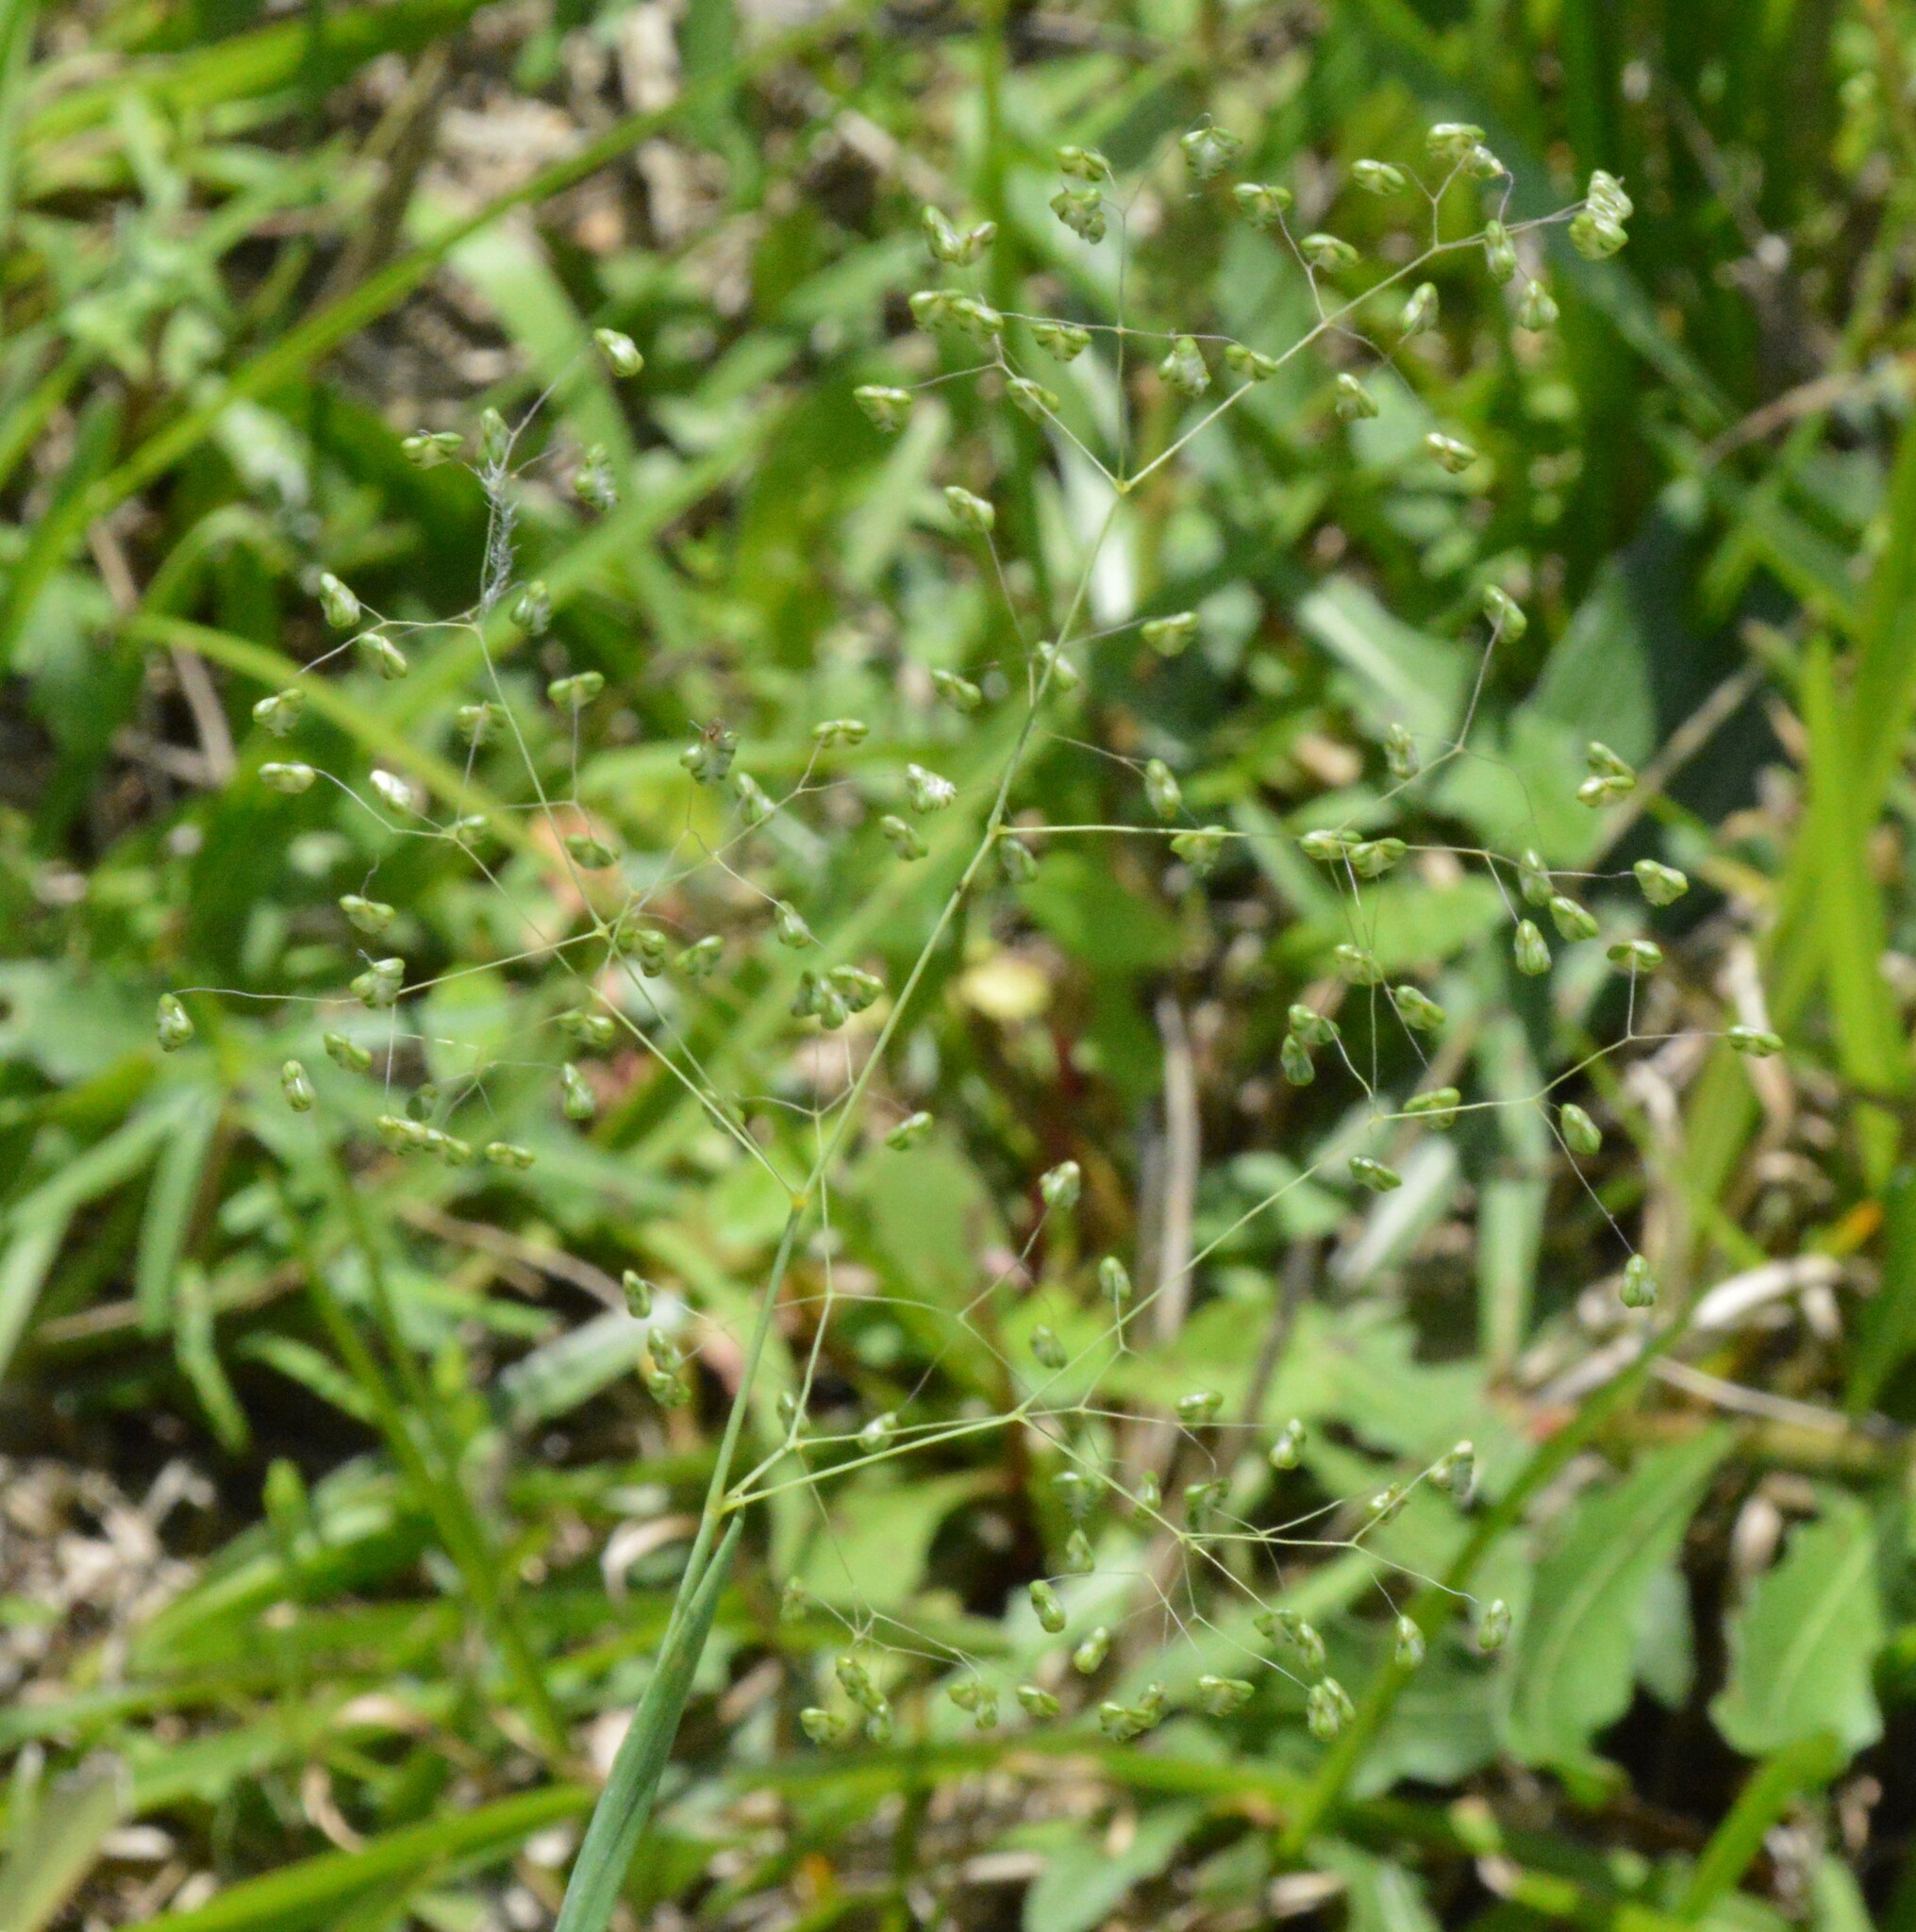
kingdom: Plantae
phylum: Tracheophyta
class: Liliopsida
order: Poales
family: Poaceae
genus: Briza
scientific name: Briza minor
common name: Lesser quaking-grass
